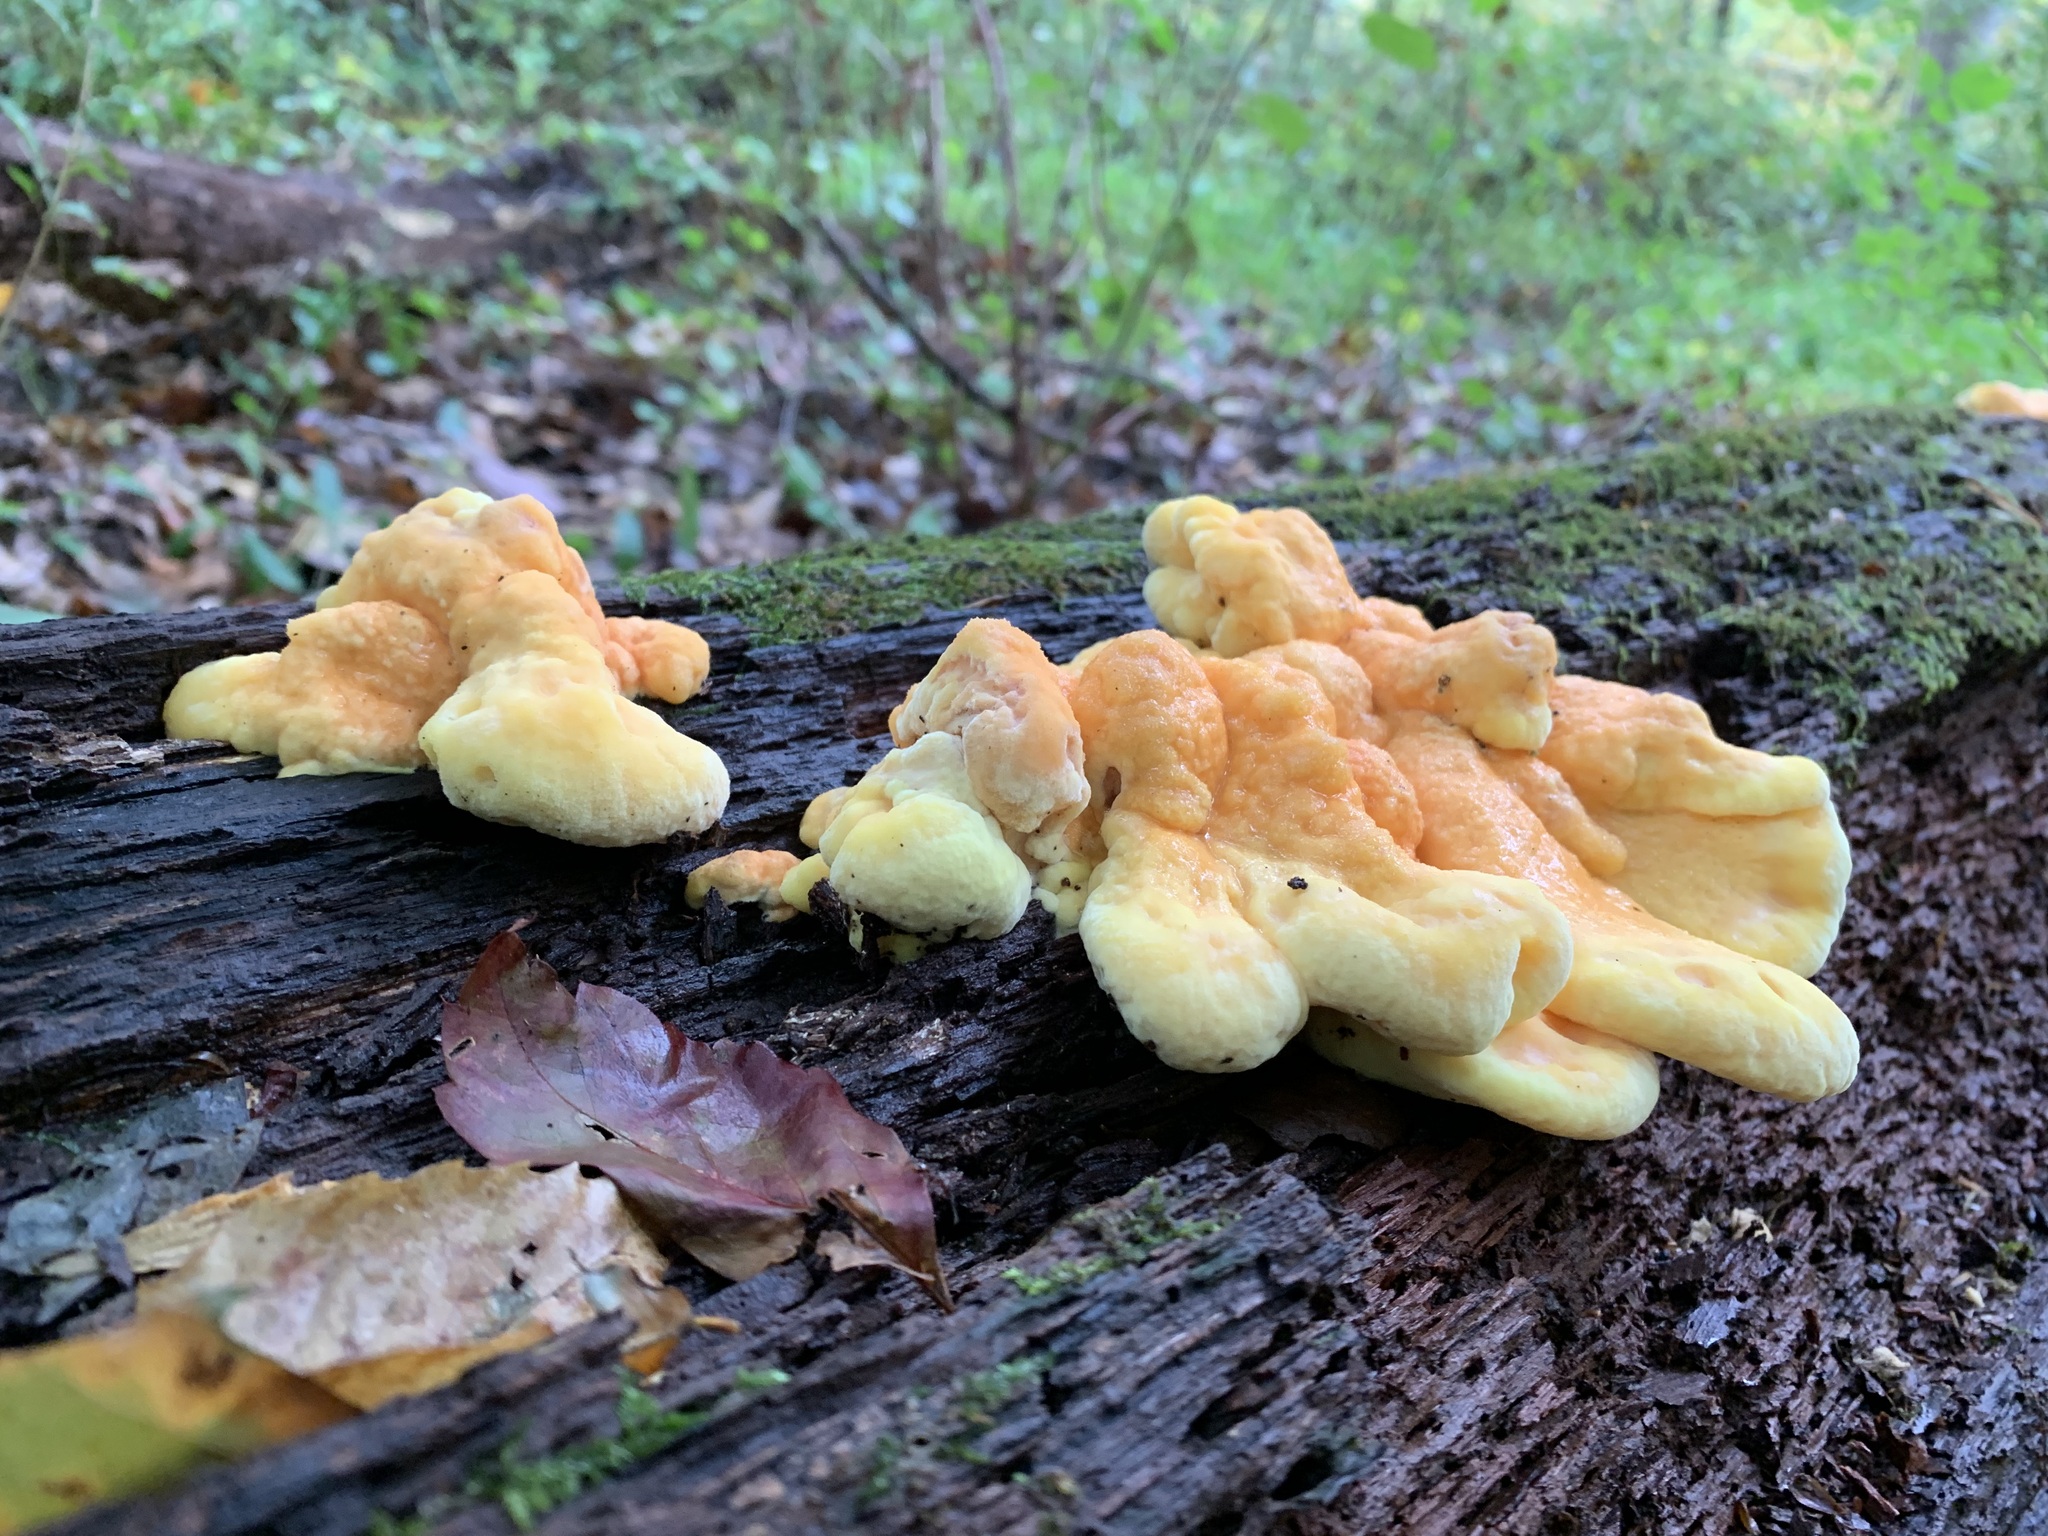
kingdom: Fungi
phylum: Basidiomycota
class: Agaricomycetes
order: Polyporales
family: Laetiporaceae
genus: Laetiporus
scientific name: Laetiporus sulphureus
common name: Chicken of the woods
